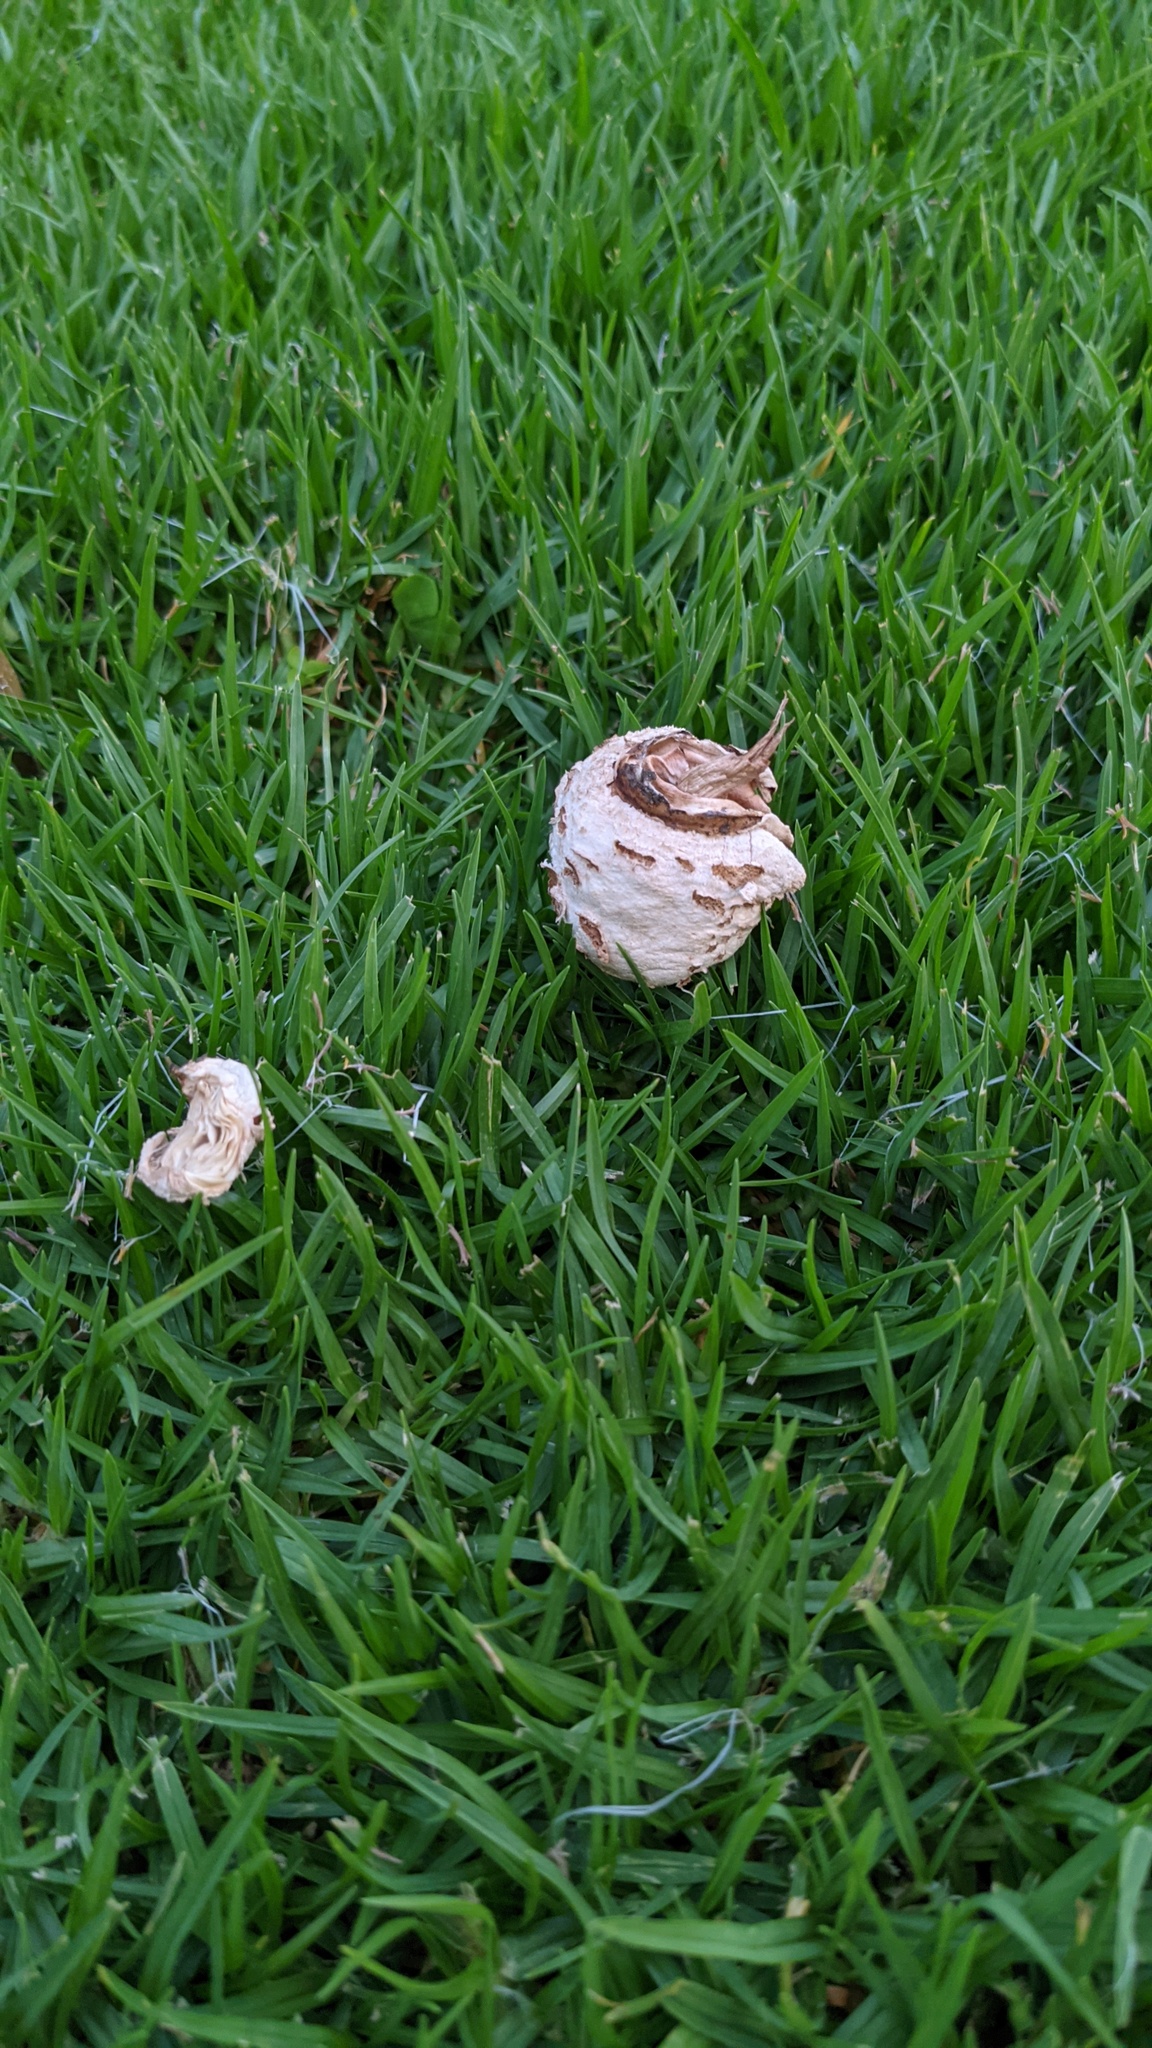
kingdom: Fungi
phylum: Basidiomycota
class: Agaricomycetes
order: Agaricales
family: Agaricaceae
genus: Chlorophyllum
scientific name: Chlorophyllum molybdites
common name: False parasol
